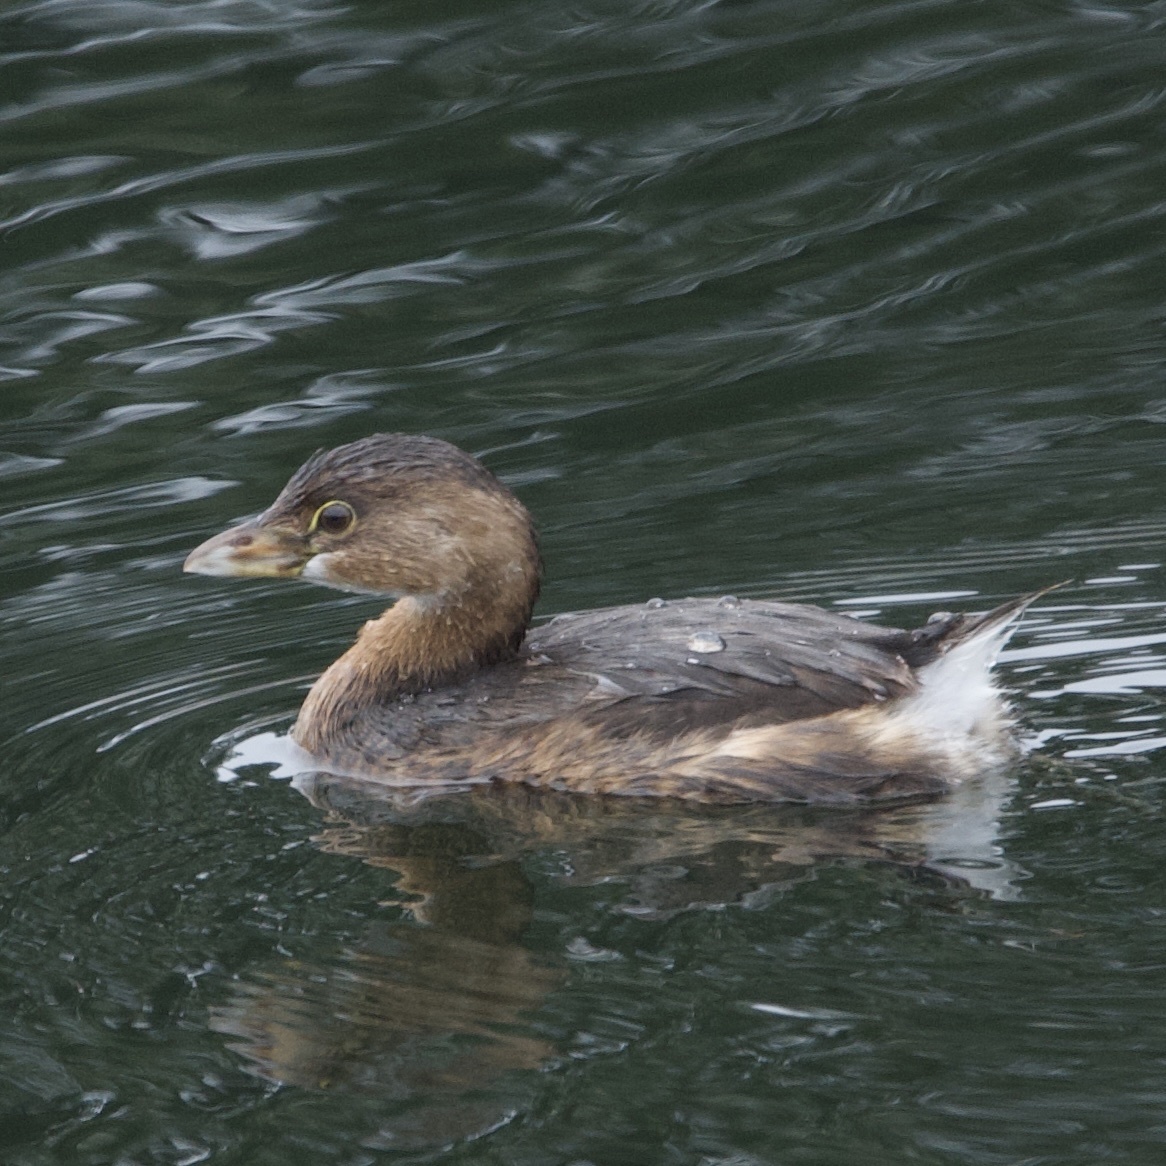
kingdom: Animalia
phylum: Chordata
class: Aves
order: Podicipediformes
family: Podicipedidae
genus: Podilymbus
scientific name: Podilymbus podiceps
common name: Pied-billed grebe
